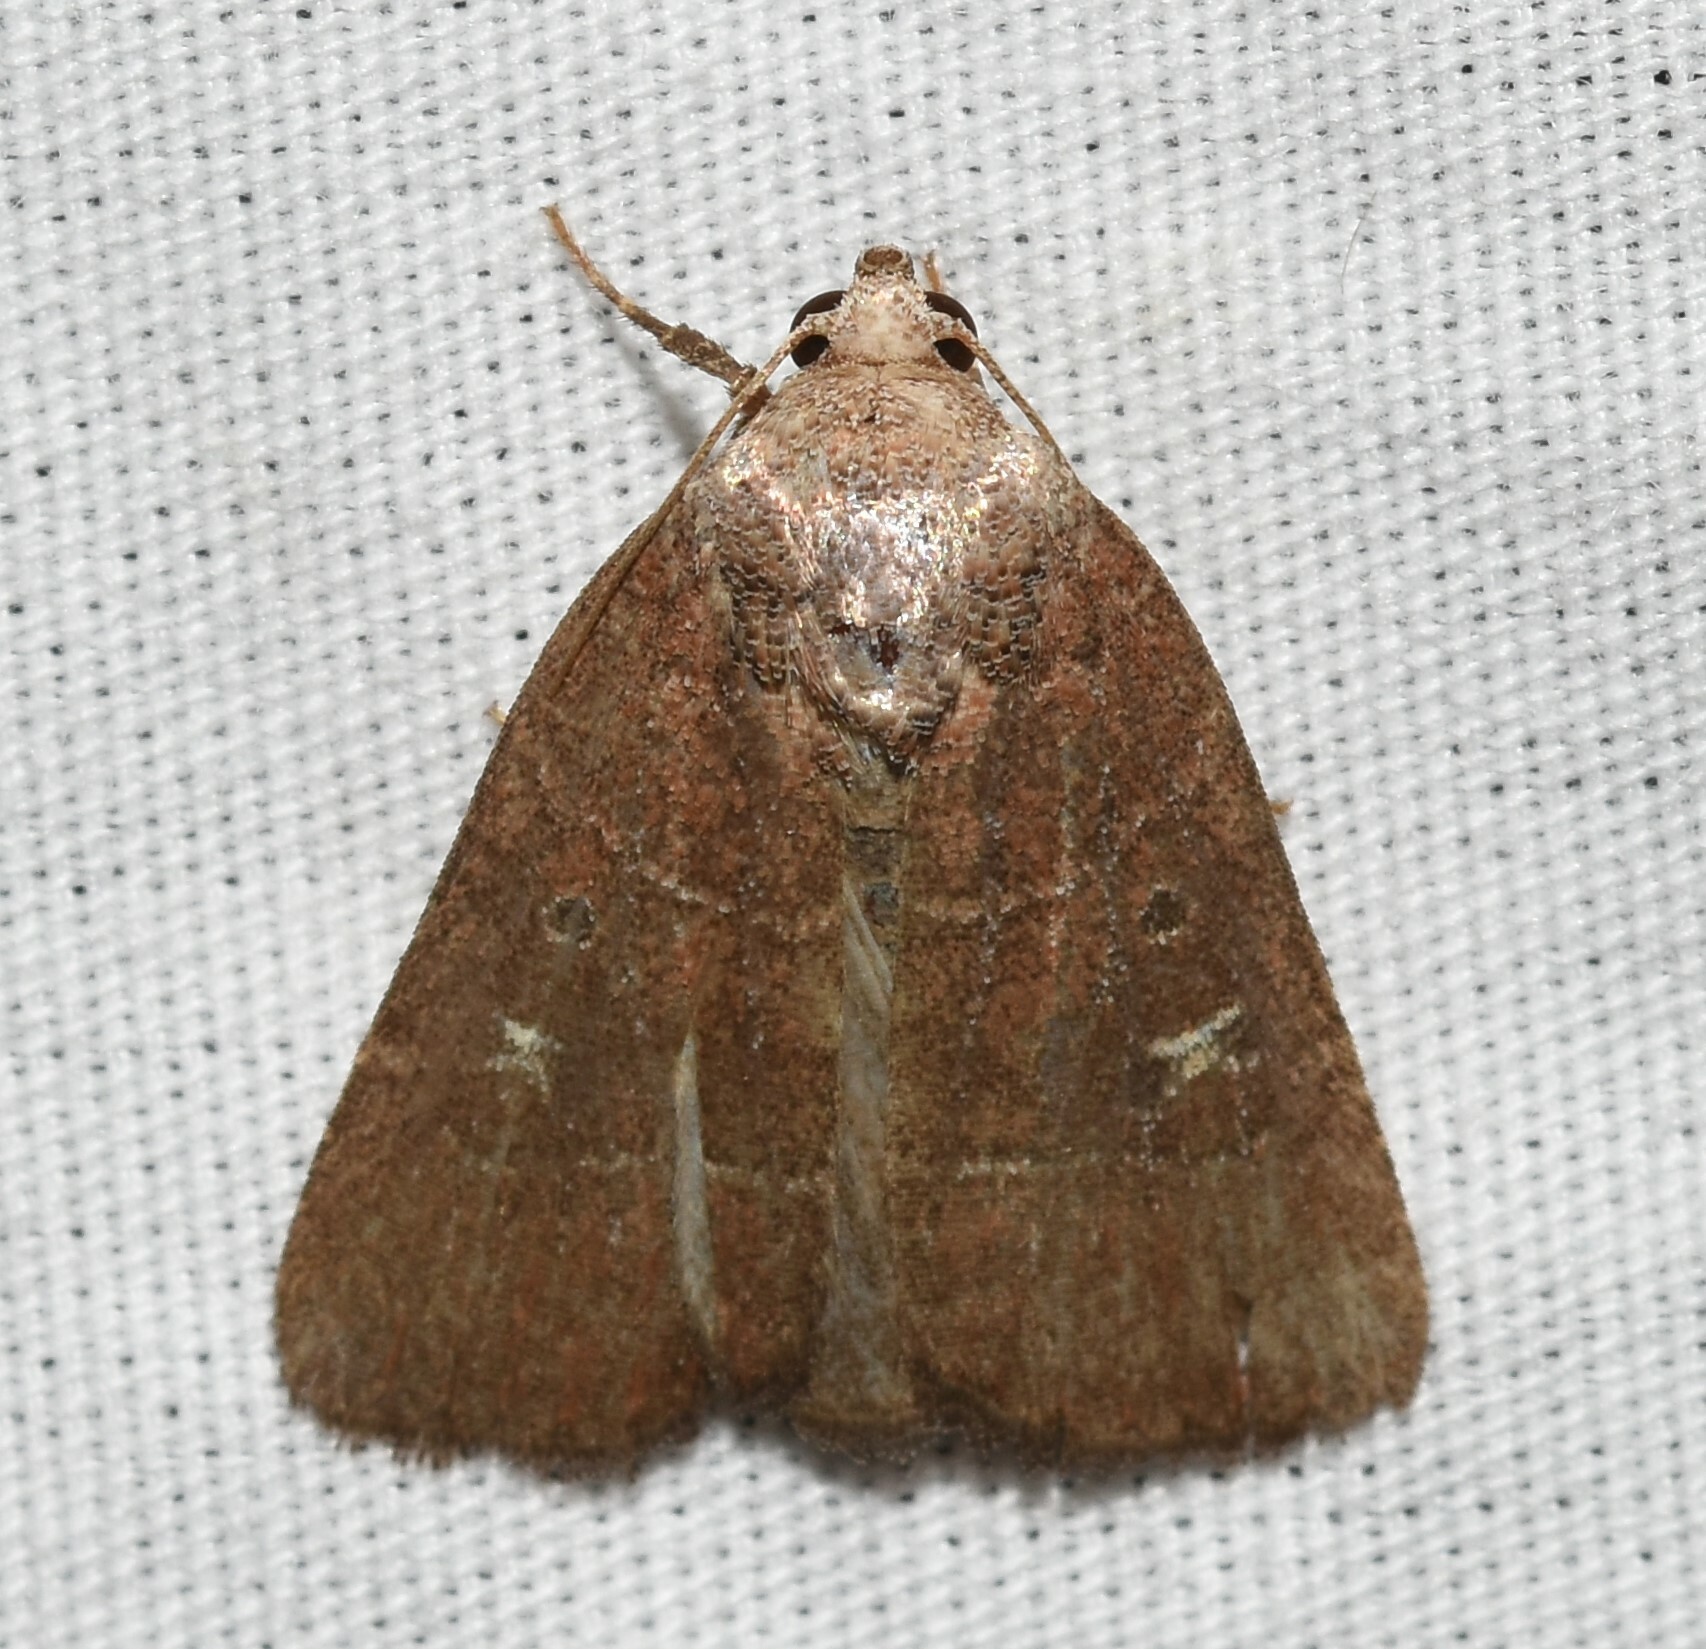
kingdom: Animalia
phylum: Arthropoda
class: Insecta
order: Lepidoptera
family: Noctuidae
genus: Elaphria
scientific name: Elaphria grata
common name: Grateful midget moth
